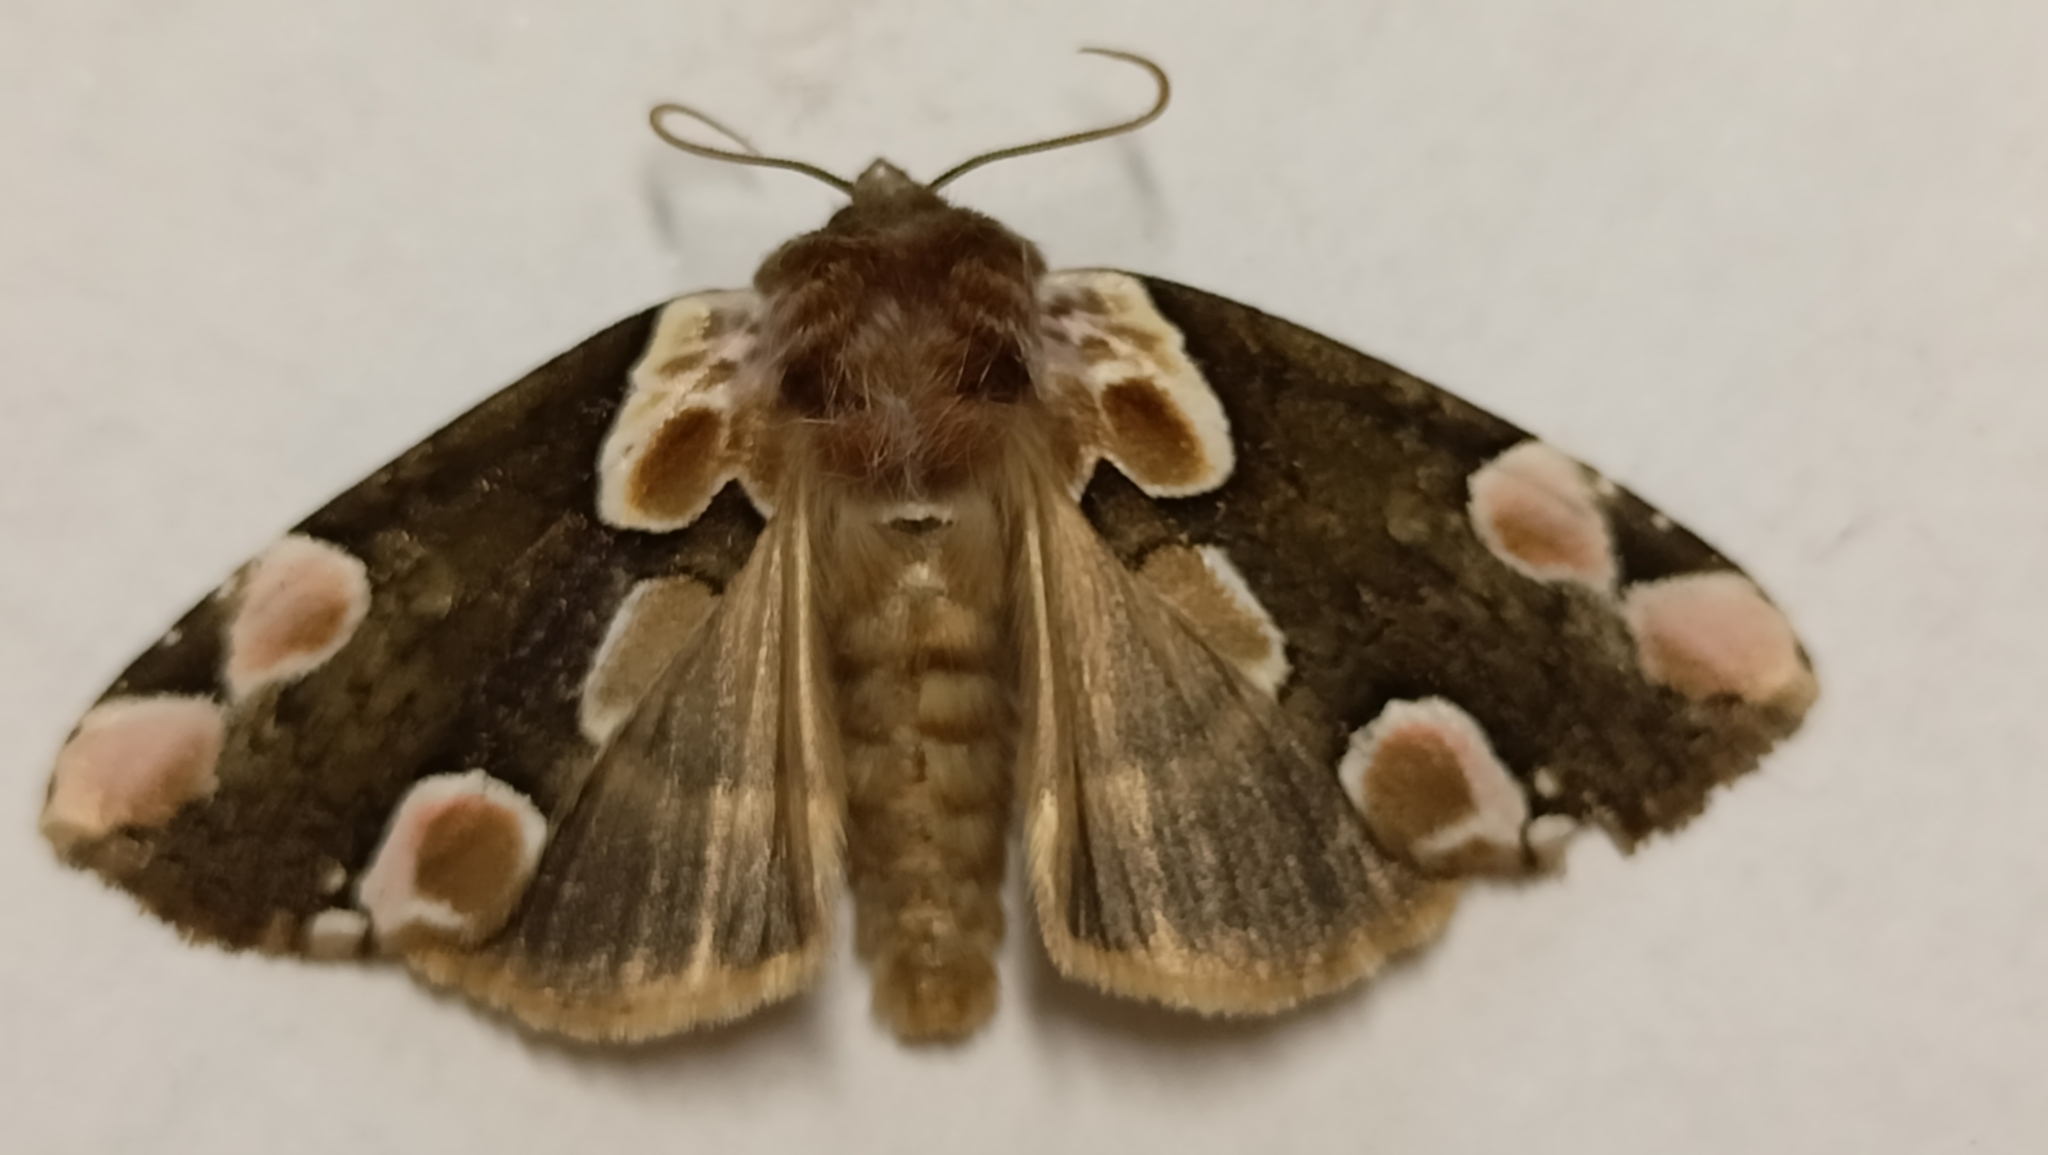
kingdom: Animalia
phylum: Arthropoda
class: Insecta
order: Lepidoptera
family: Drepanidae
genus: Thyatira
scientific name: Thyatira batis
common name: Peach blossom
